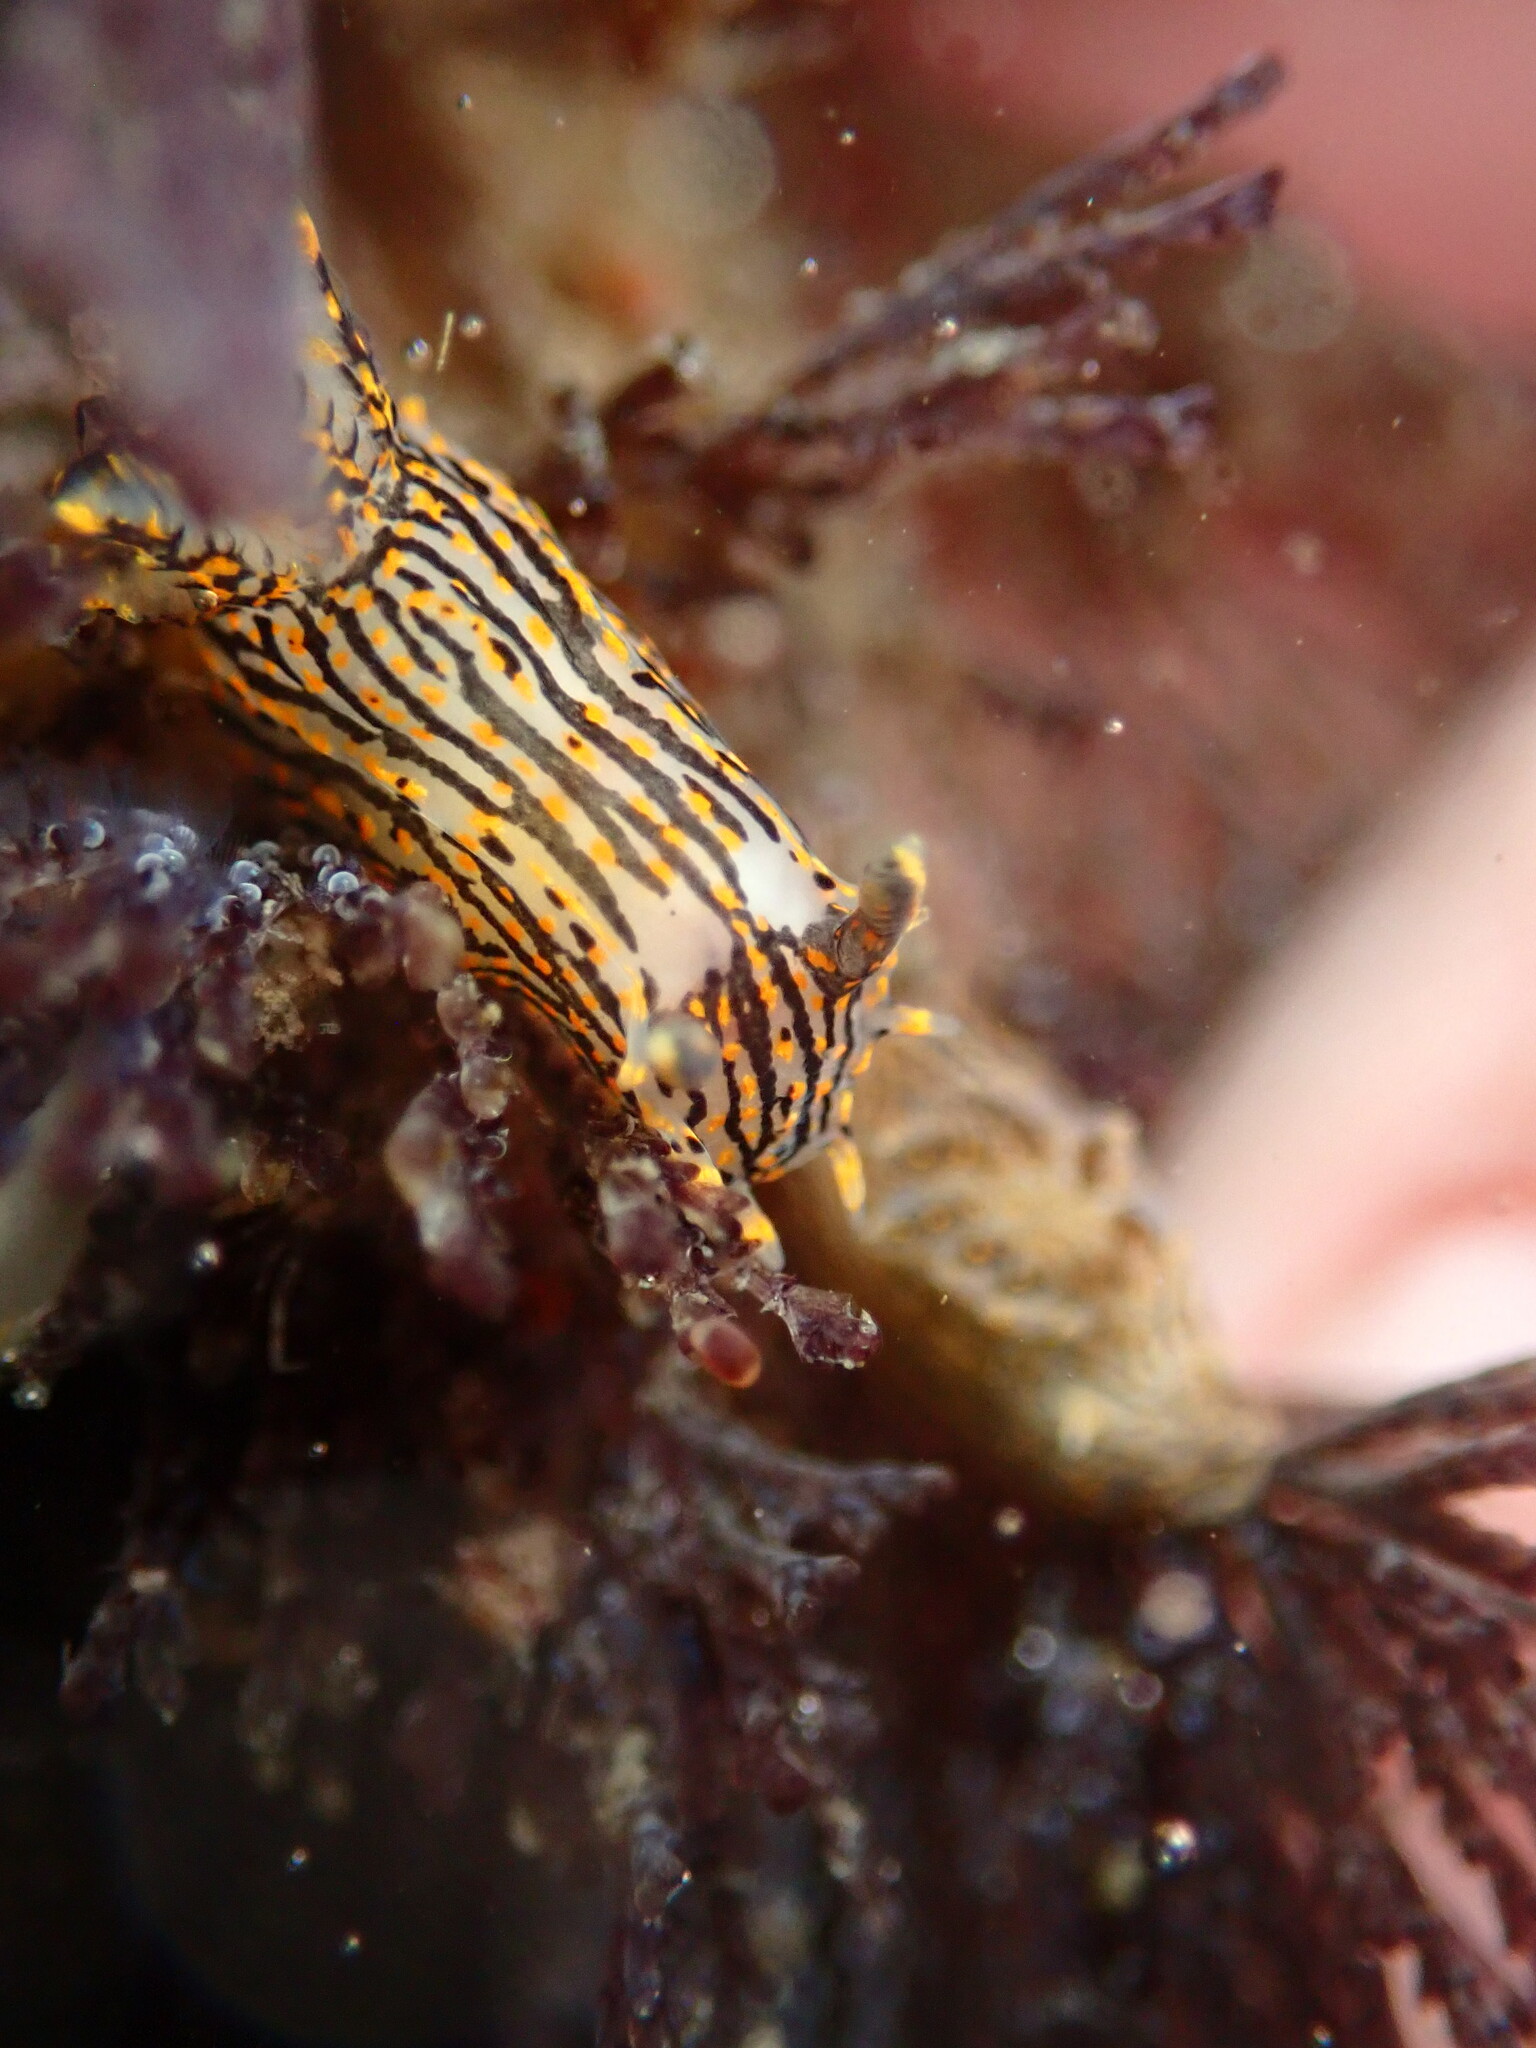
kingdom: Animalia
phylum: Mollusca
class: Gastropoda
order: Nudibranchia
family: Polyceridae
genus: Polycera
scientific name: Polycera atra
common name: Orange-spike polycera
